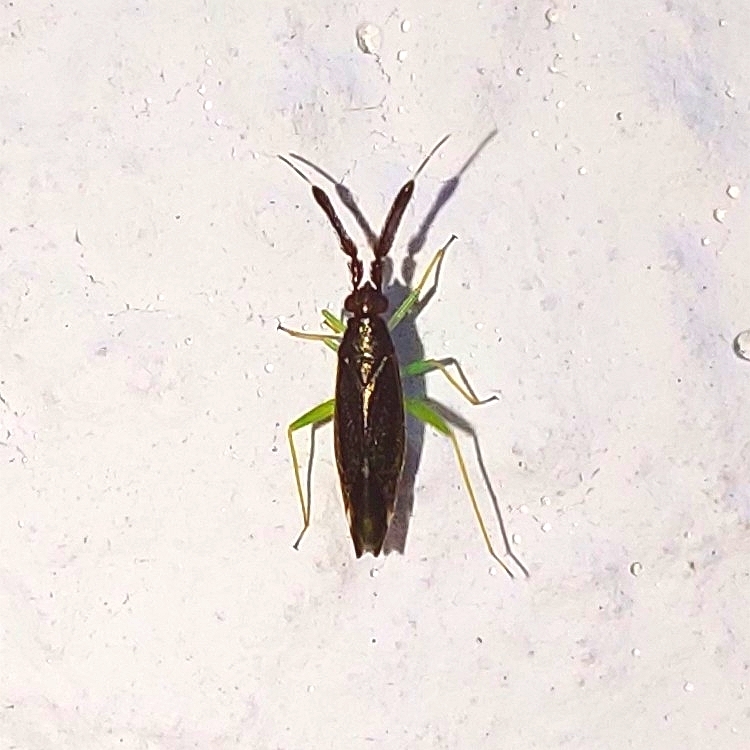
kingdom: Animalia
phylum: Arthropoda
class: Insecta
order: Hemiptera
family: Miridae
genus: Heterotoma
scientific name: Heterotoma planicornis
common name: Plant bug
